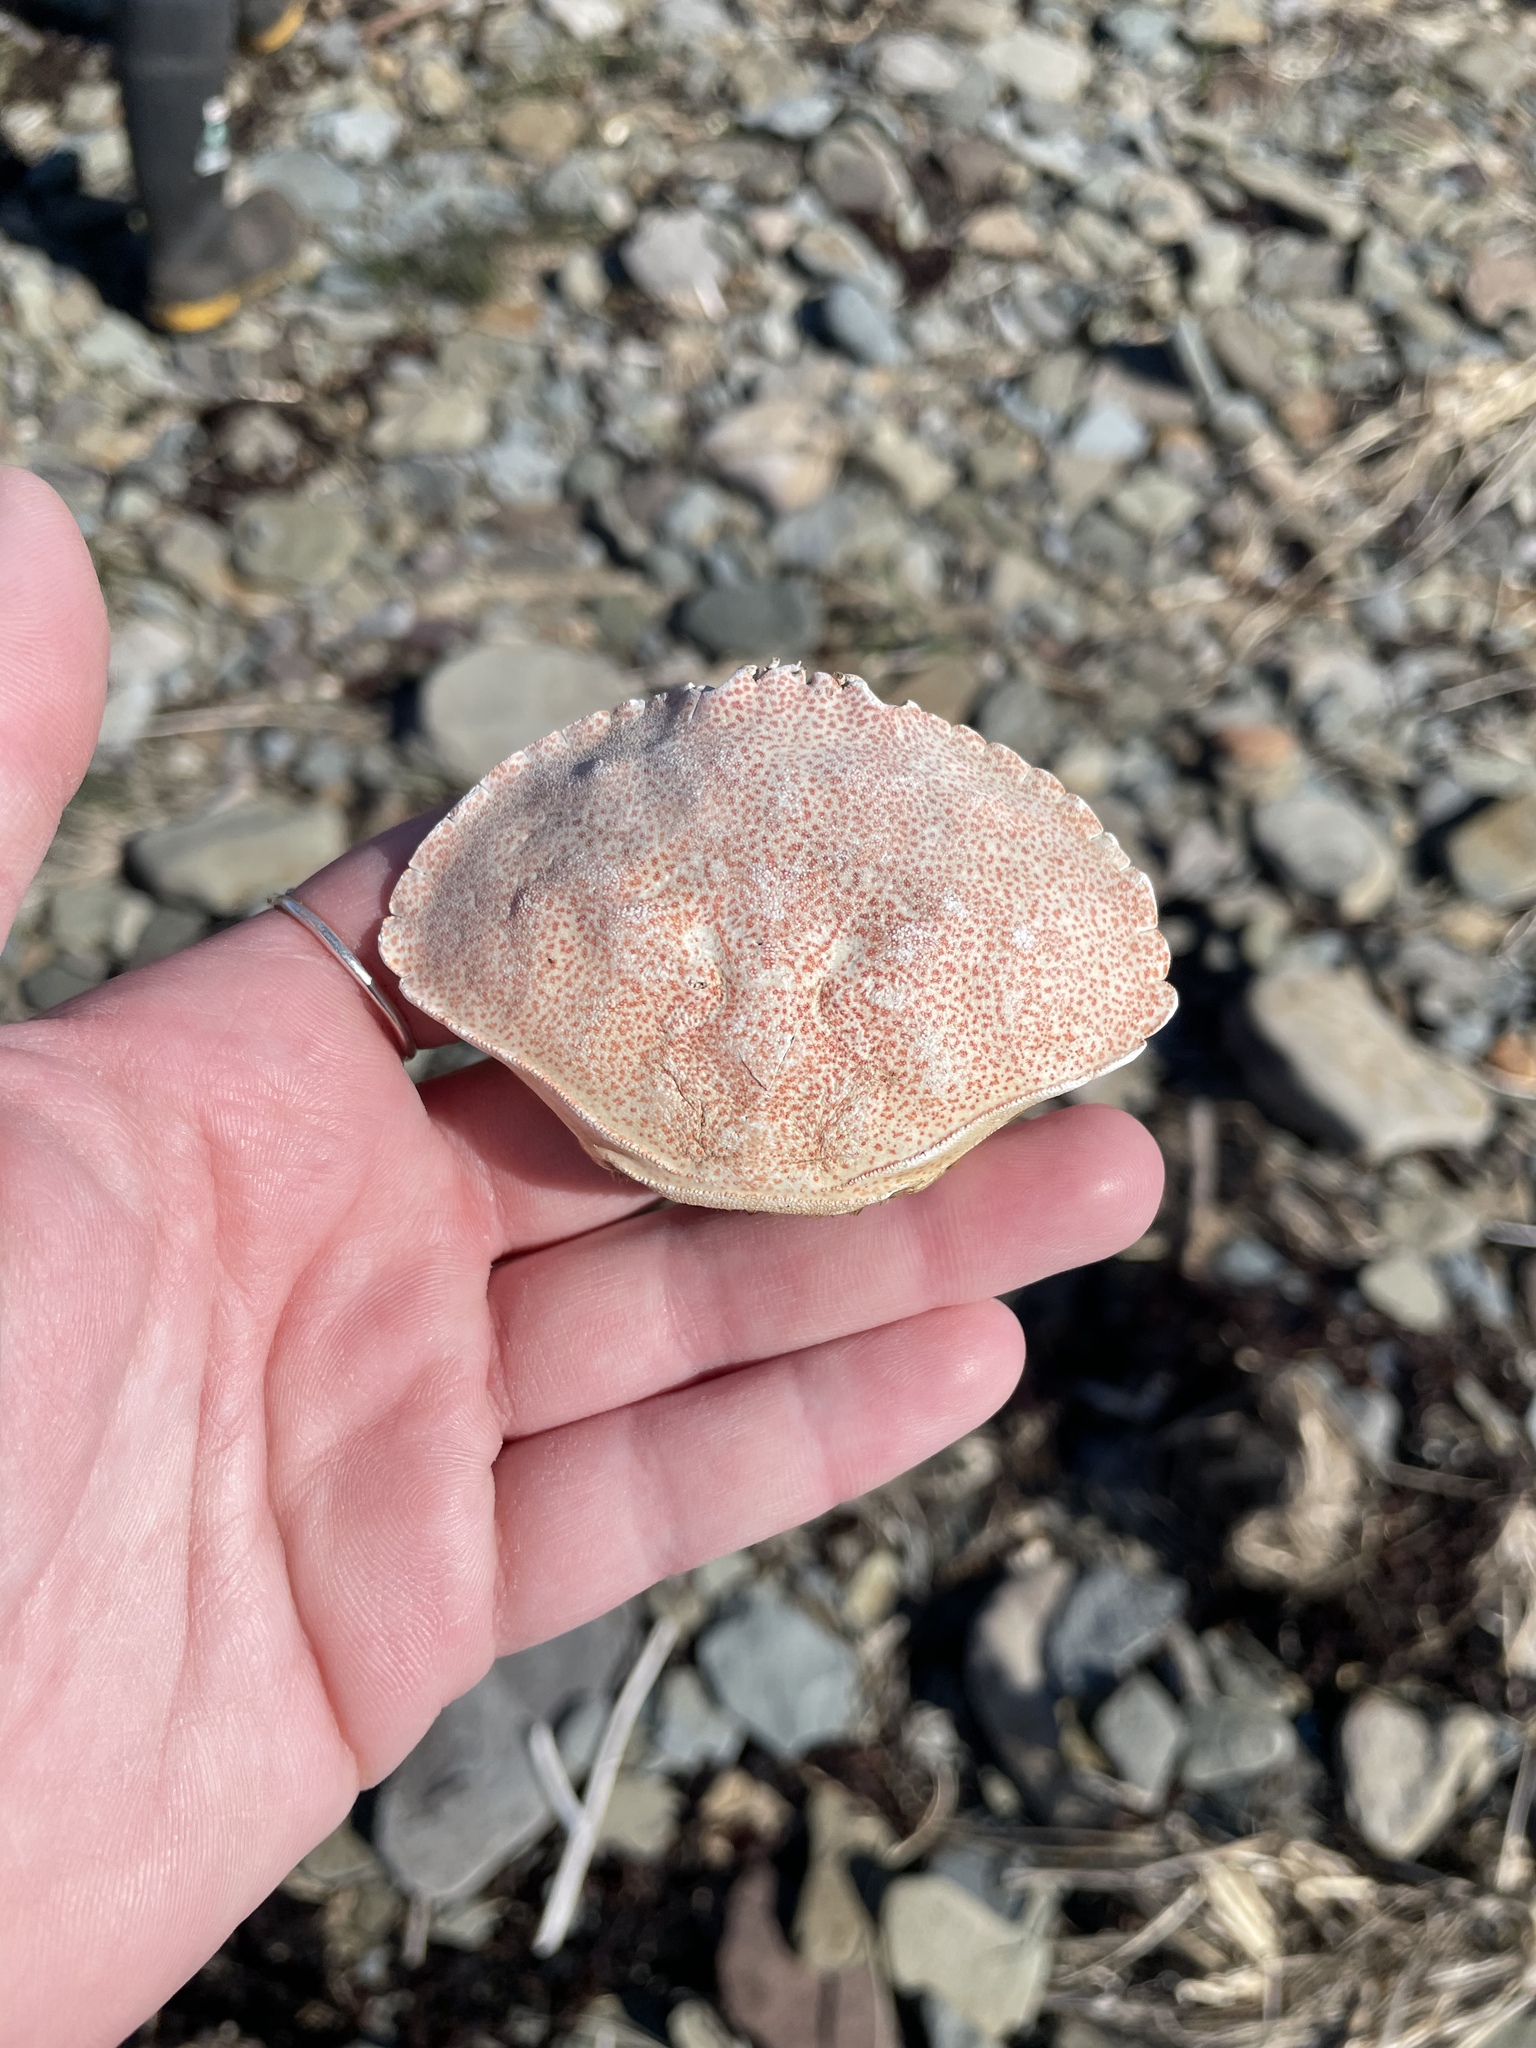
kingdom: Animalia
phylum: Arthropoda
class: Malacostraca
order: Decapoda
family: Cancridae
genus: Cancer
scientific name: Cancer irroratus
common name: Atlantic rock crab
